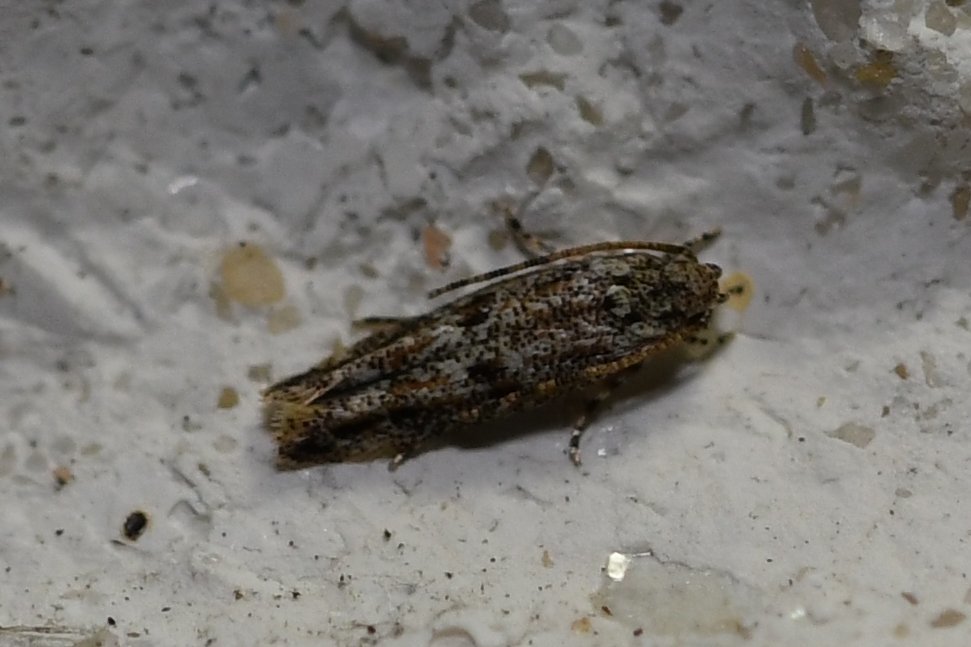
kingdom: Animalia
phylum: Arthropoda
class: Insecta
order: Lepidoptera
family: Oecophoridae
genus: Ymeldia
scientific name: Ymeldia janae
